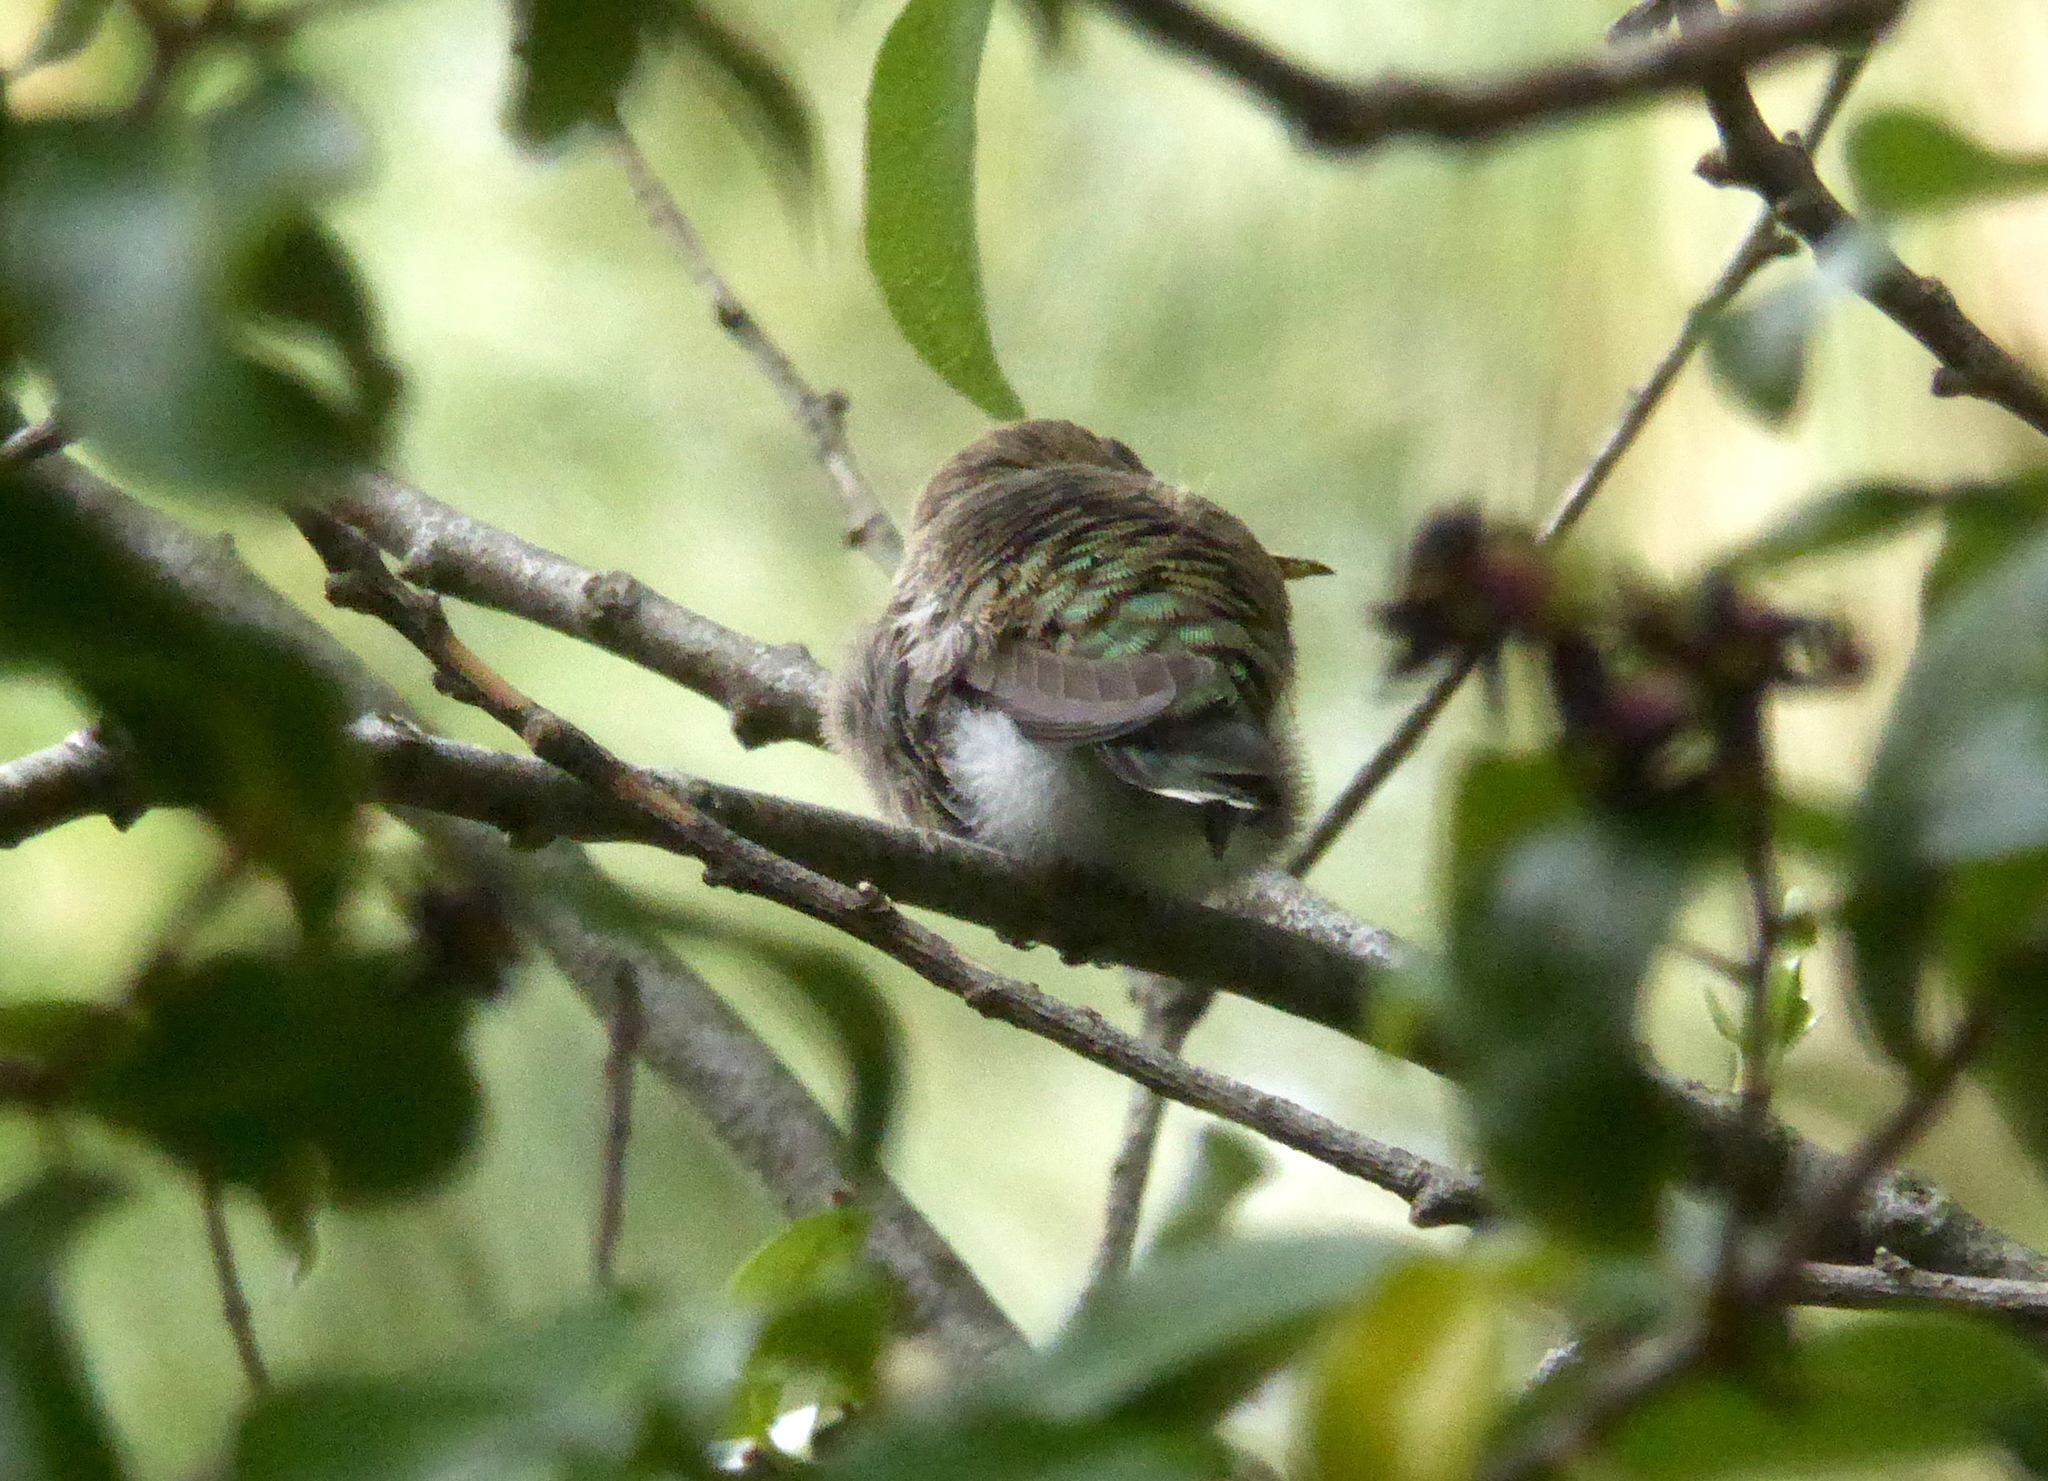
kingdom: Animalia
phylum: Chordata
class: Aves
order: Apodiformes
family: Trochilidae
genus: Calypte
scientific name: Calypte anna
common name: Anna's hummingbird
